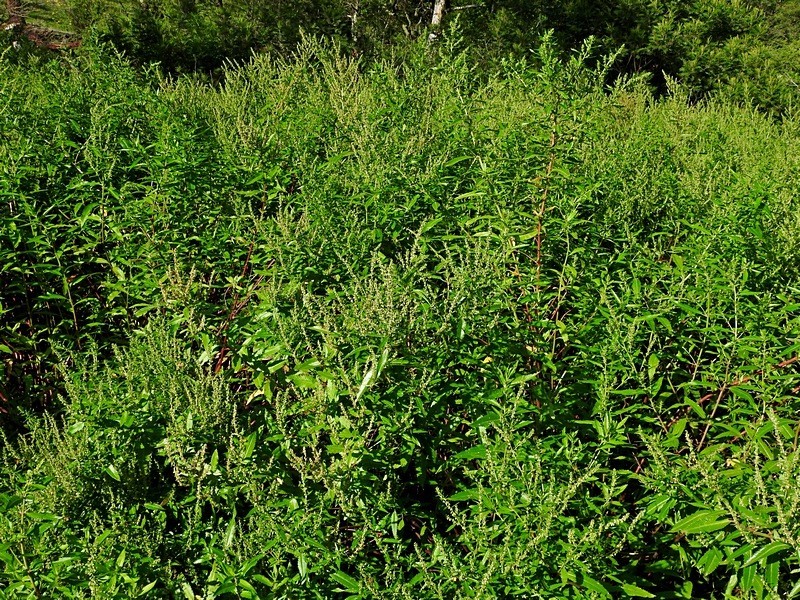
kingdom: Plantae
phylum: Tracheophyta
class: Magnoliopsida
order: Saxifragales
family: Haloragaceae
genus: Haloragis
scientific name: Haloragis exalata
